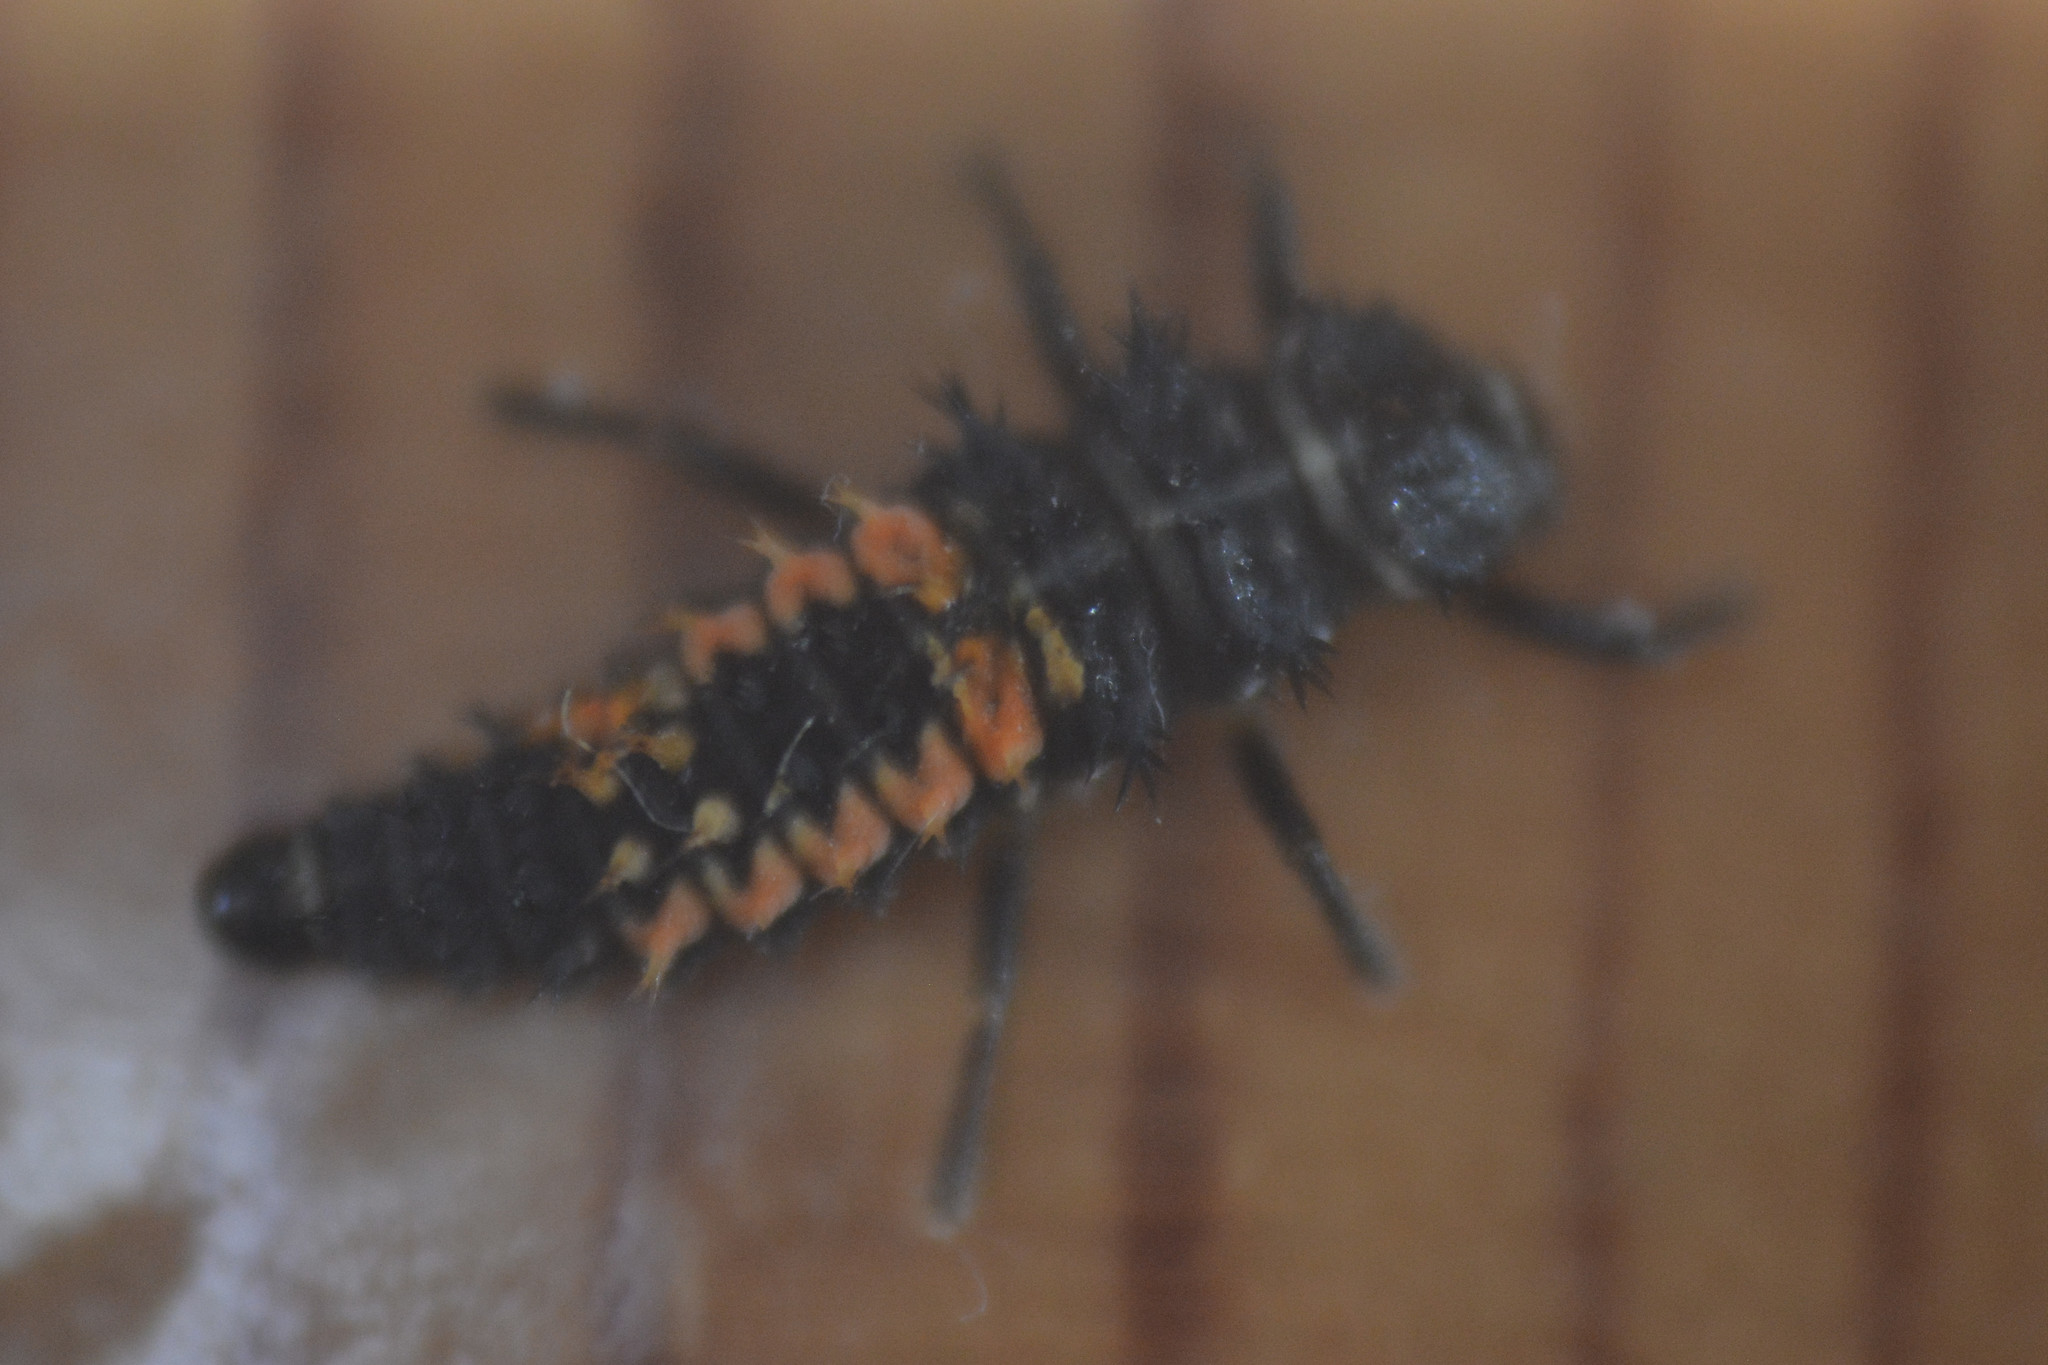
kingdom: Animalia
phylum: Arthropoda
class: Insecta
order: Coleoptera
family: Coccinellidae
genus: Harmonia
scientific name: Harmonia axyridis
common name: Harlequin ladybird
